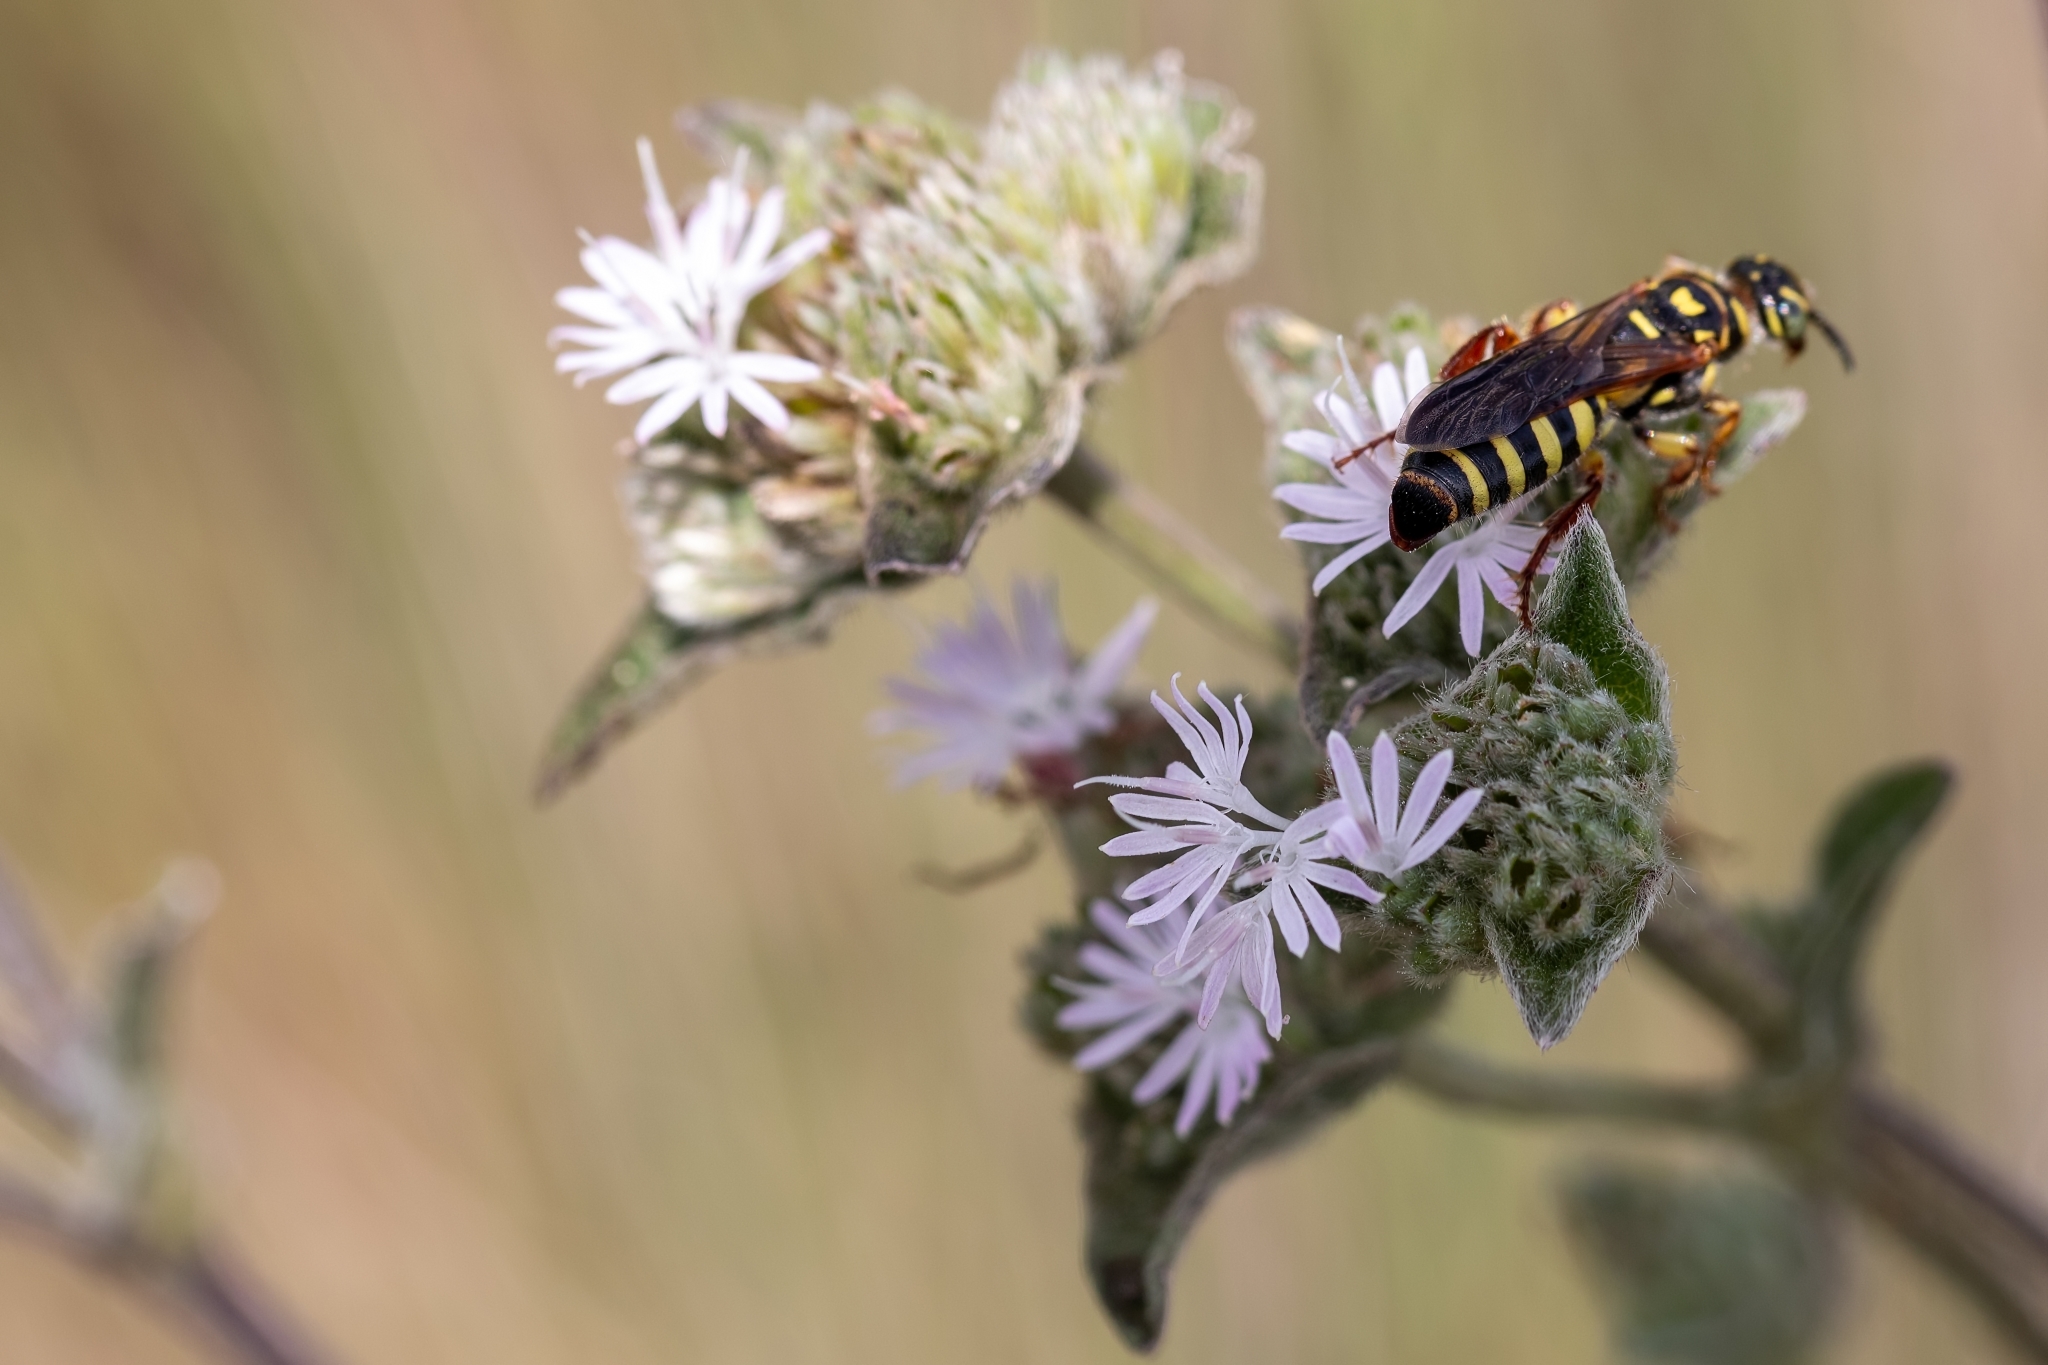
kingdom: Animalia
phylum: Arthropoda
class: Insecta
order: Hymenoptera
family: Tiphiidae
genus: Myzinum
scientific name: Myzinum maculatum
